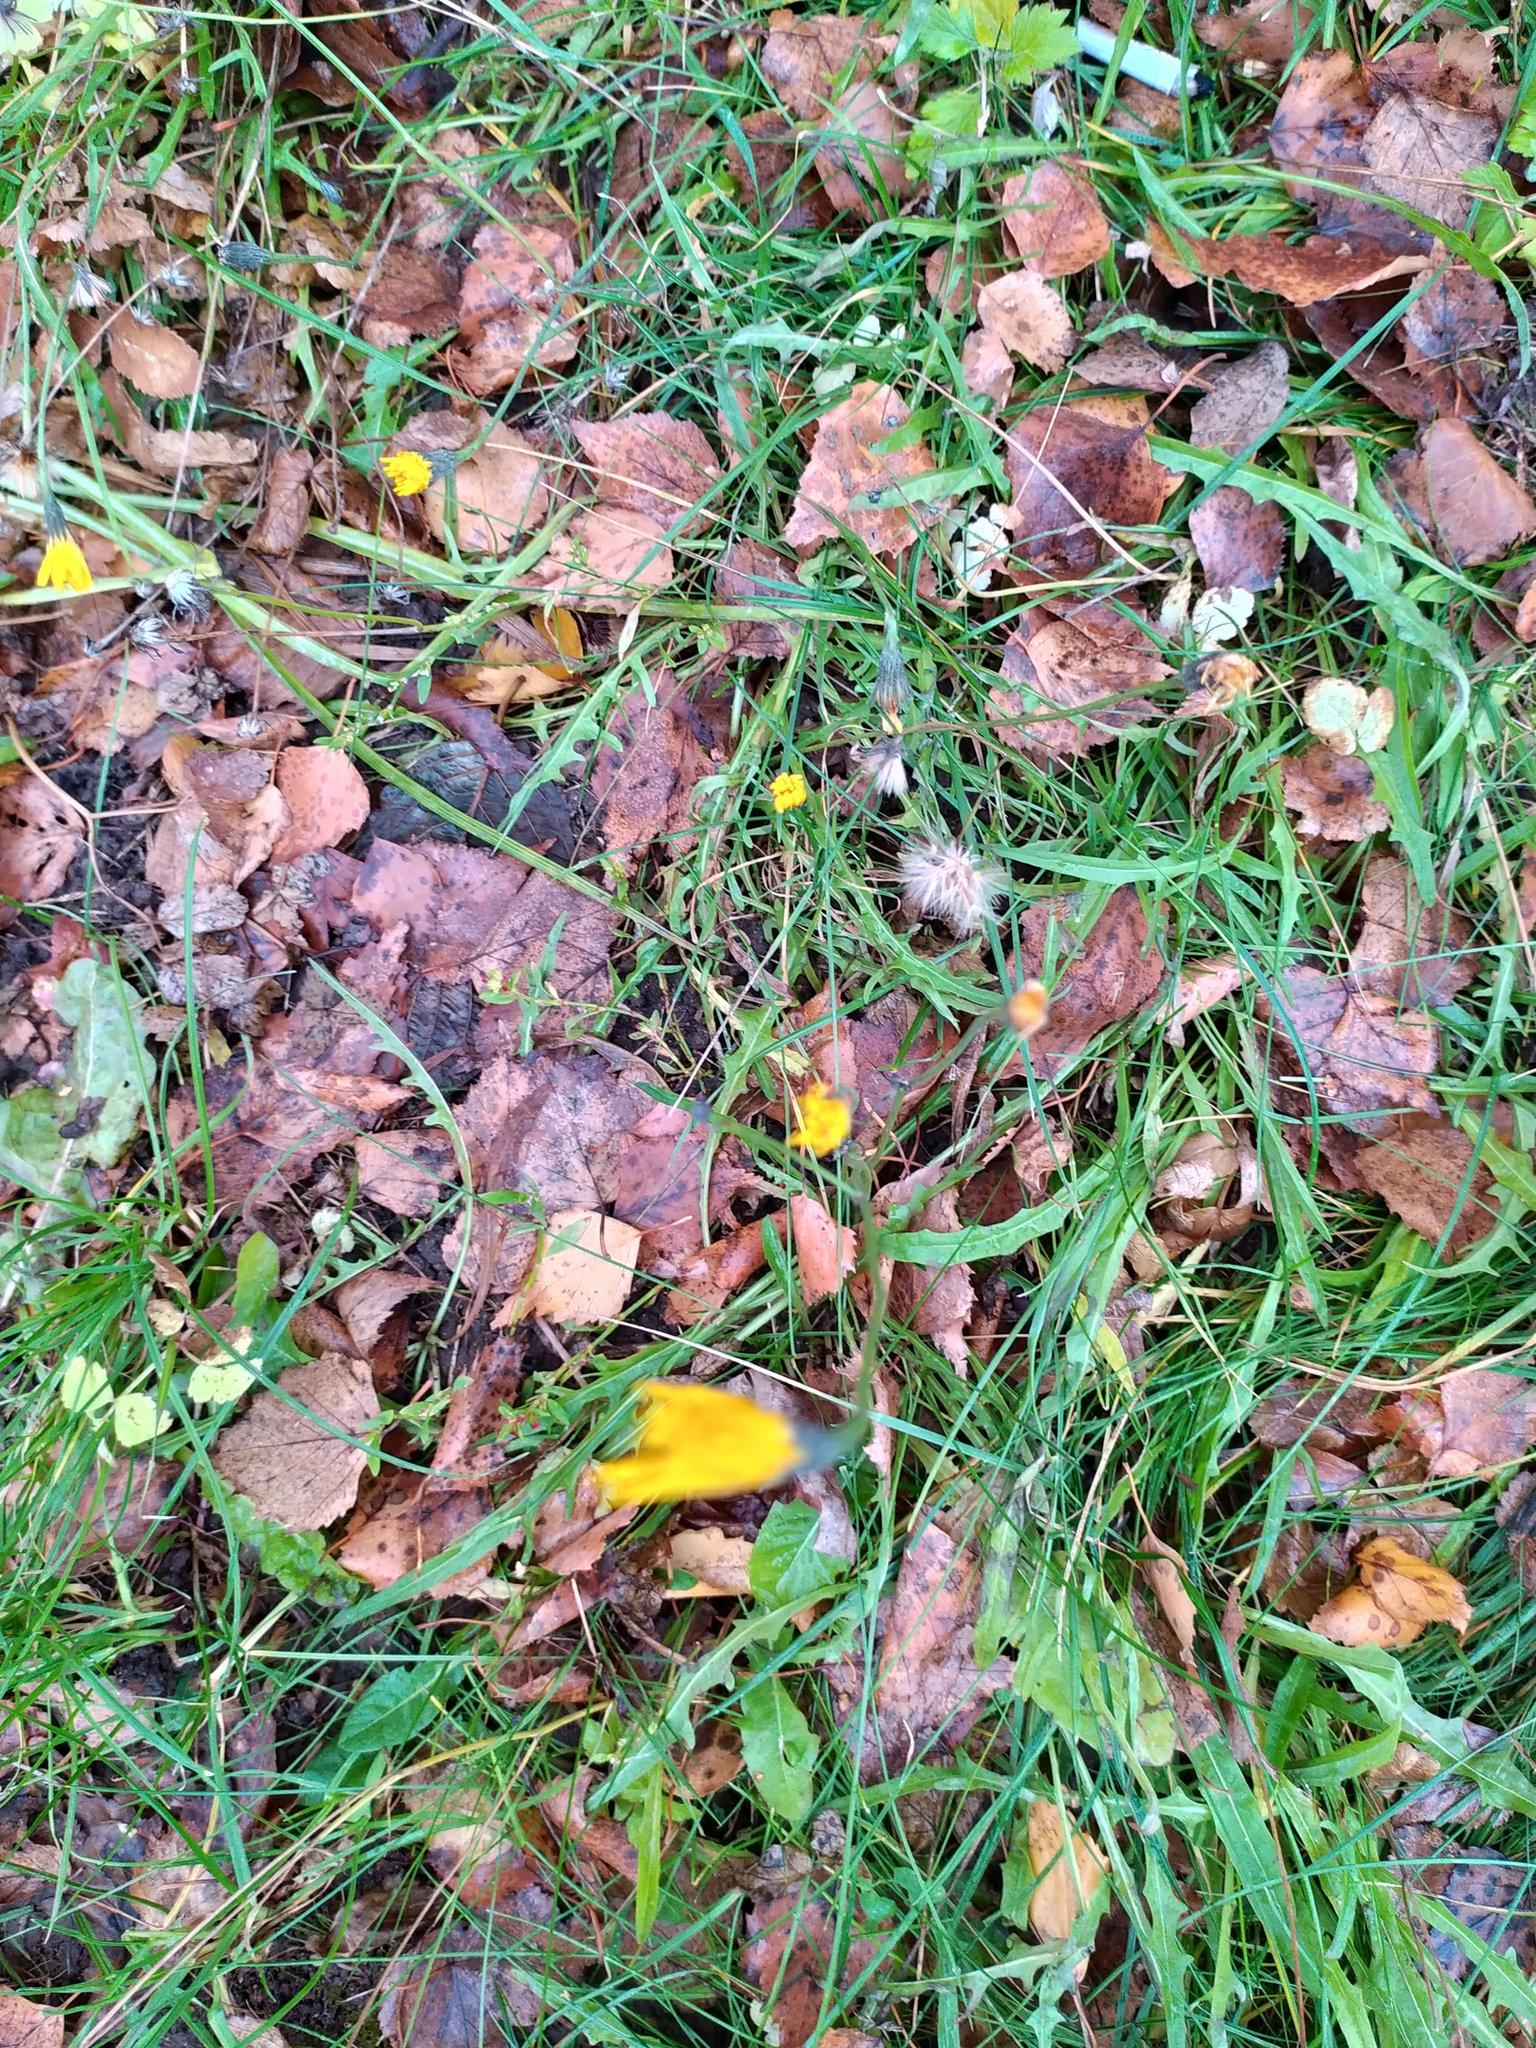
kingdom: Plantae
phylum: Tracheophyta
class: Magnoliopsida
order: Asterales
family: Asteraceae
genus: Scorzoneroides
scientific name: Scorzoneroides autumnalis
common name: Autumn hawkbit
